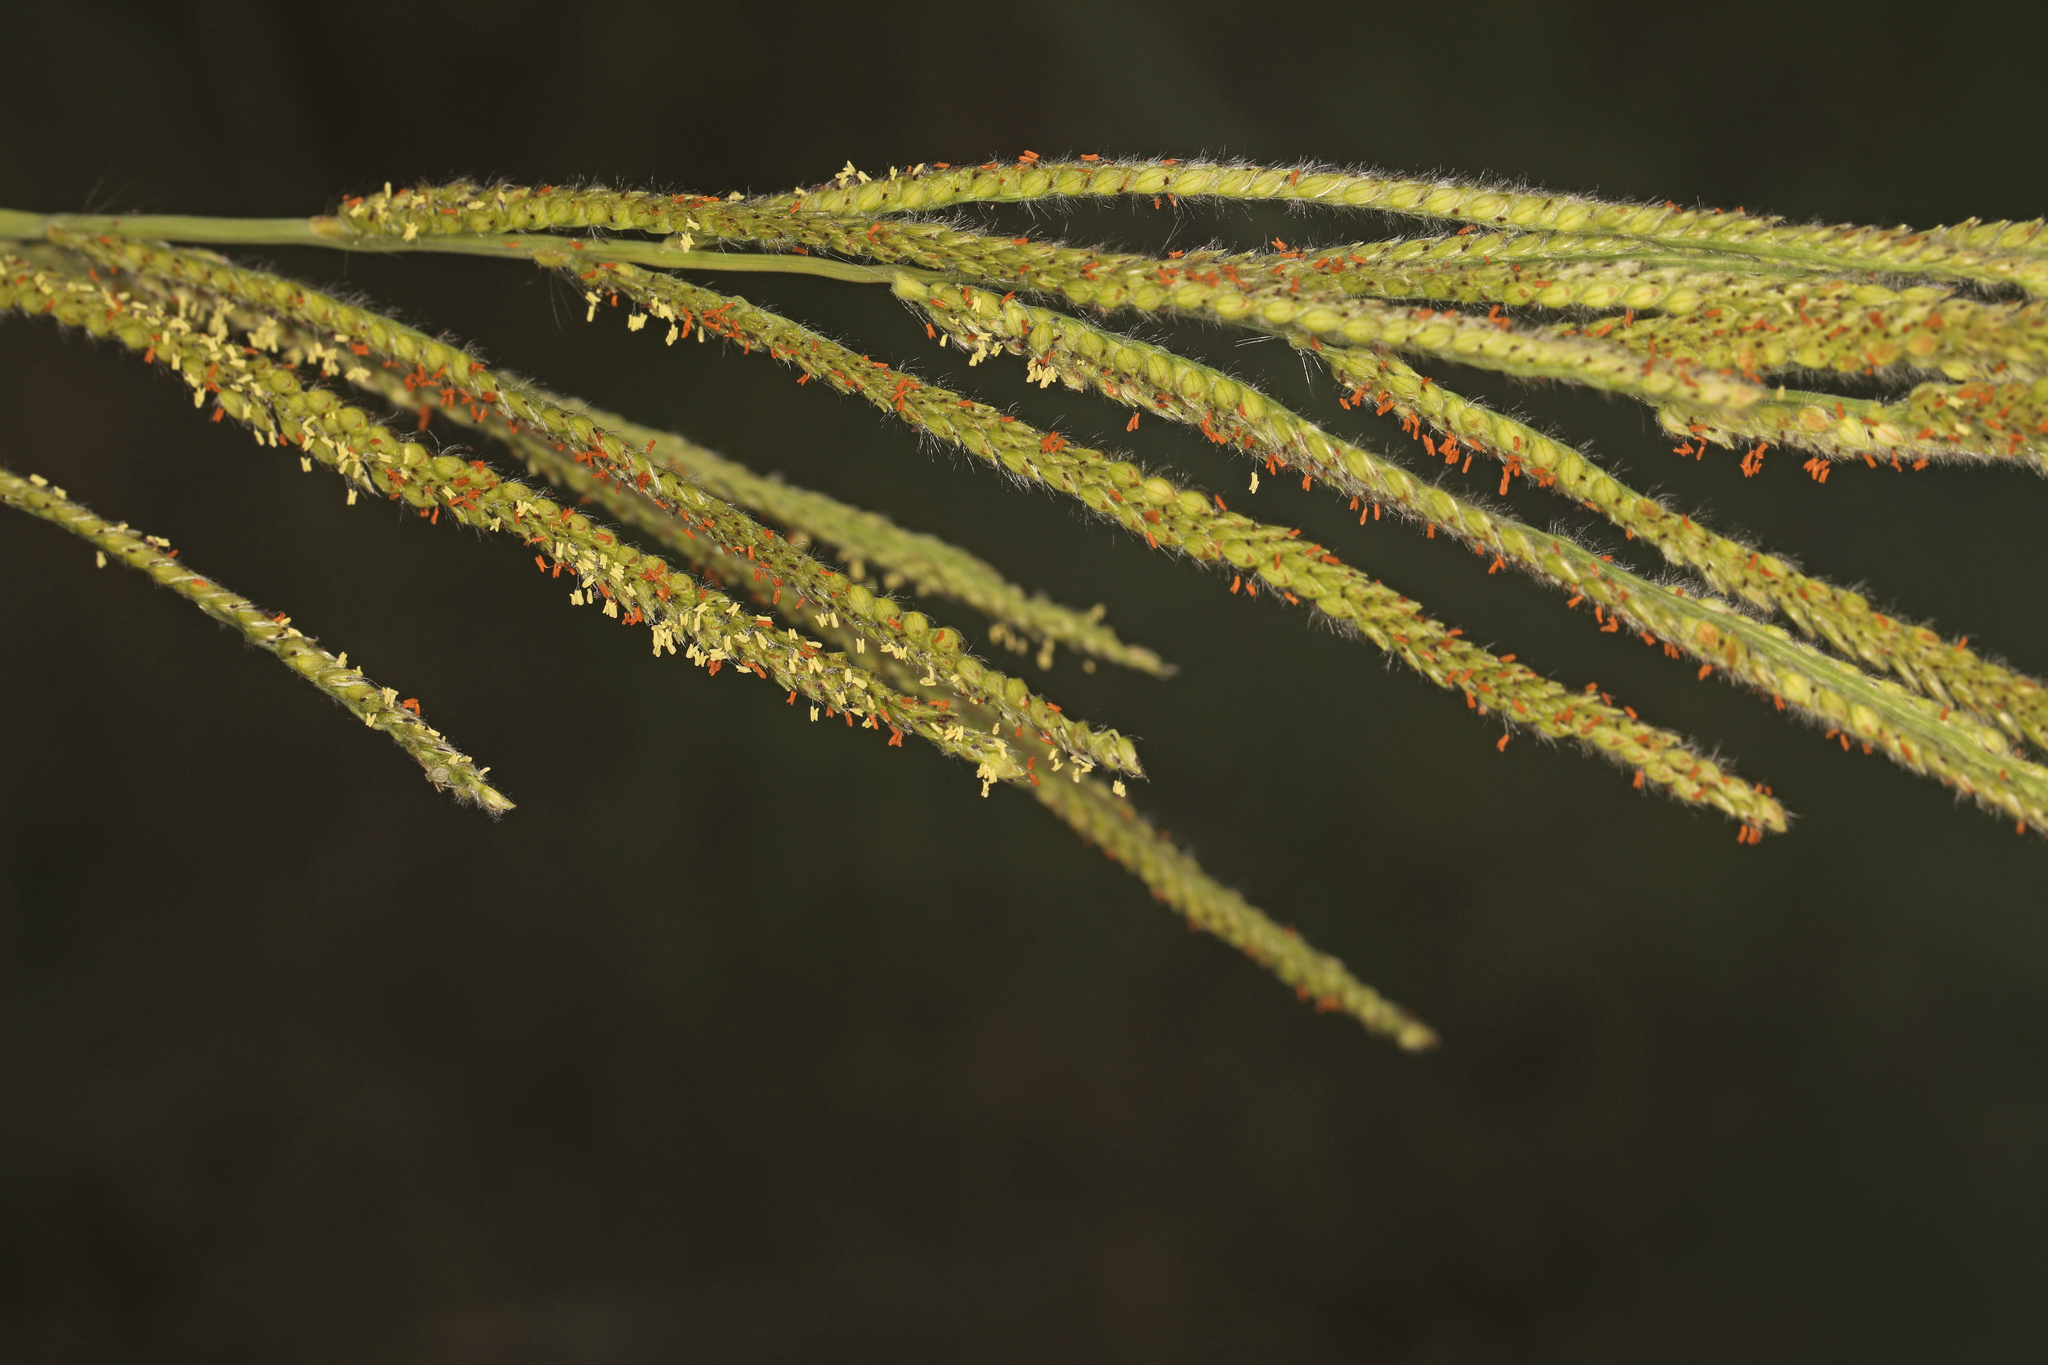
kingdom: Plantae
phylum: Tracheophyta
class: Liliopsida
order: Poales
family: Poaceae
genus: Paspalum
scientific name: Paspalum urvillei
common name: Vasey's grass
